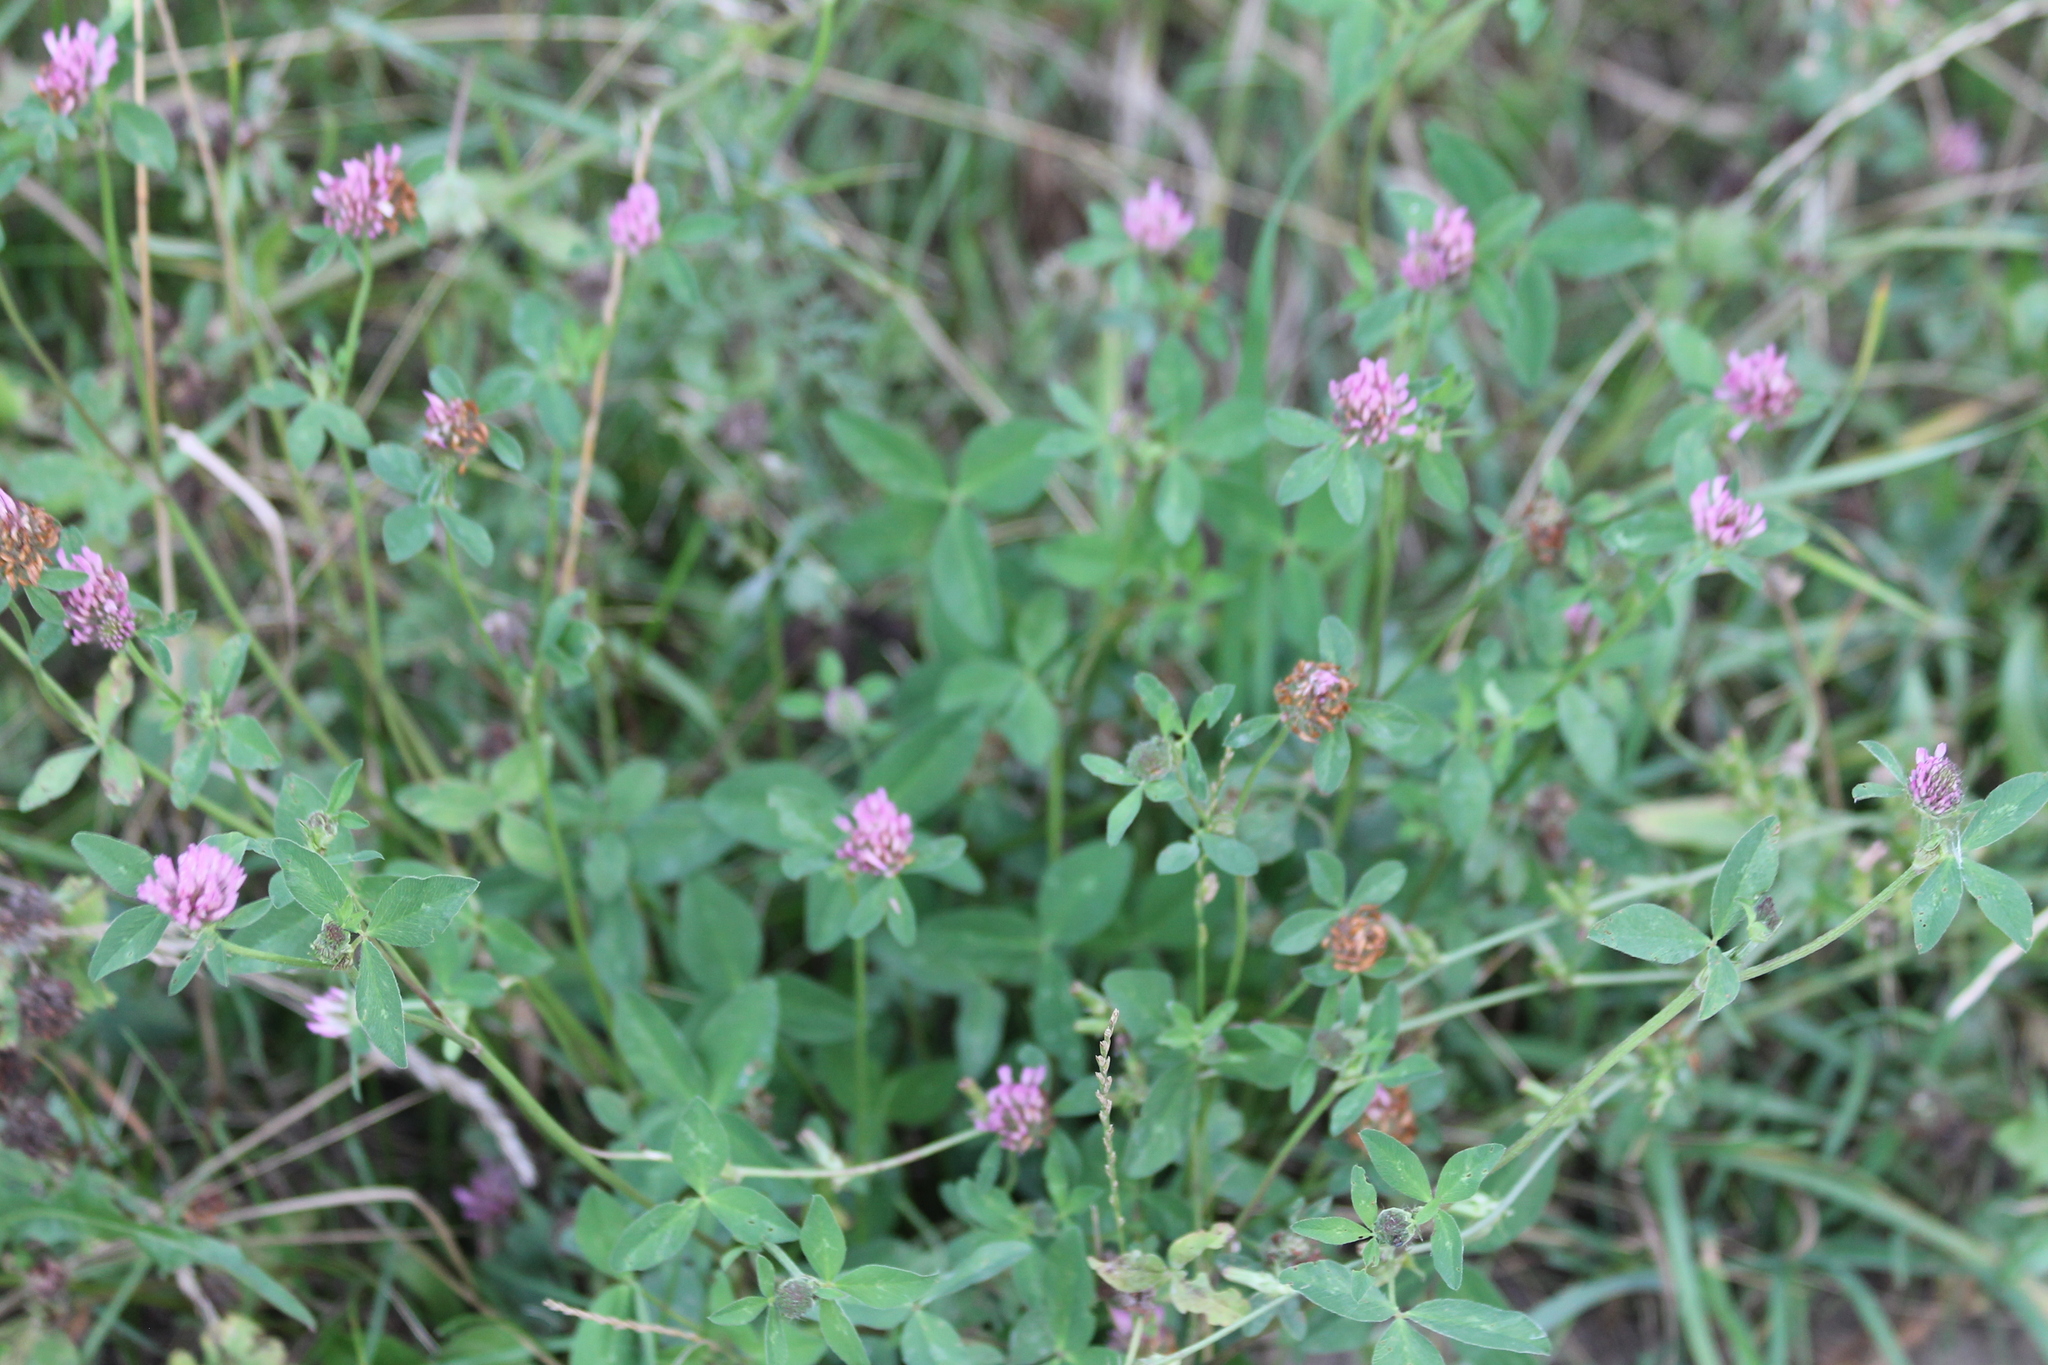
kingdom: Plantae
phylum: Tracheophyta
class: Magnoliopsida
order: Fabales
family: Fabaceae
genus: Trifolium
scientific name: Trifolium pratense
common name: Red clover
